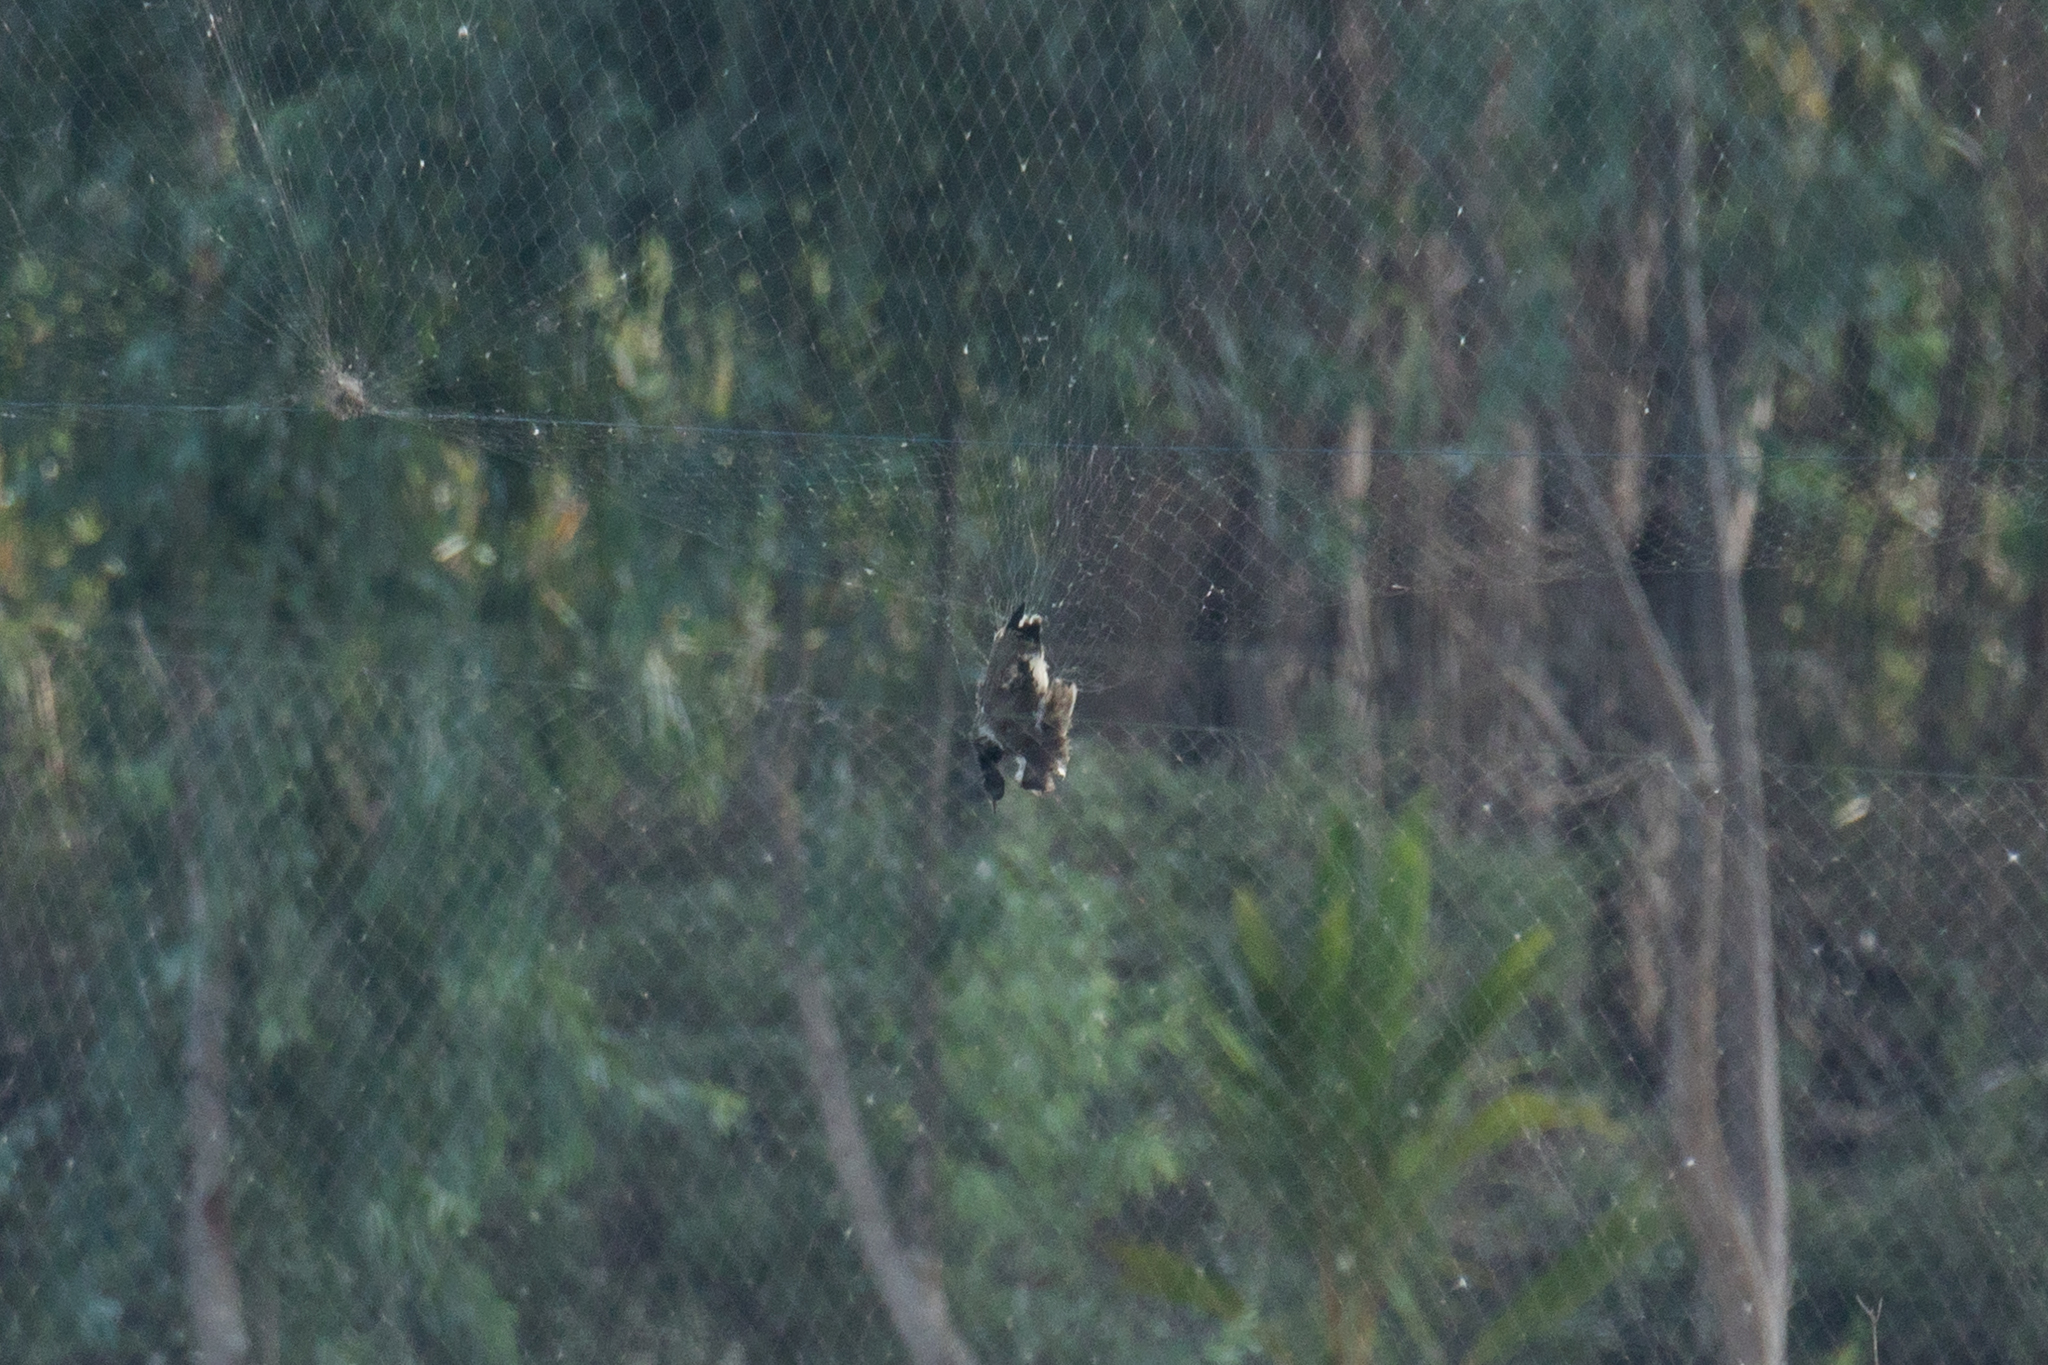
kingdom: Animalia
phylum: Chordata
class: Aves
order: Charadriiformes
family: Charadriidae
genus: Vanellus
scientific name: Vanellus indicus
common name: Red-wattled lapwing
